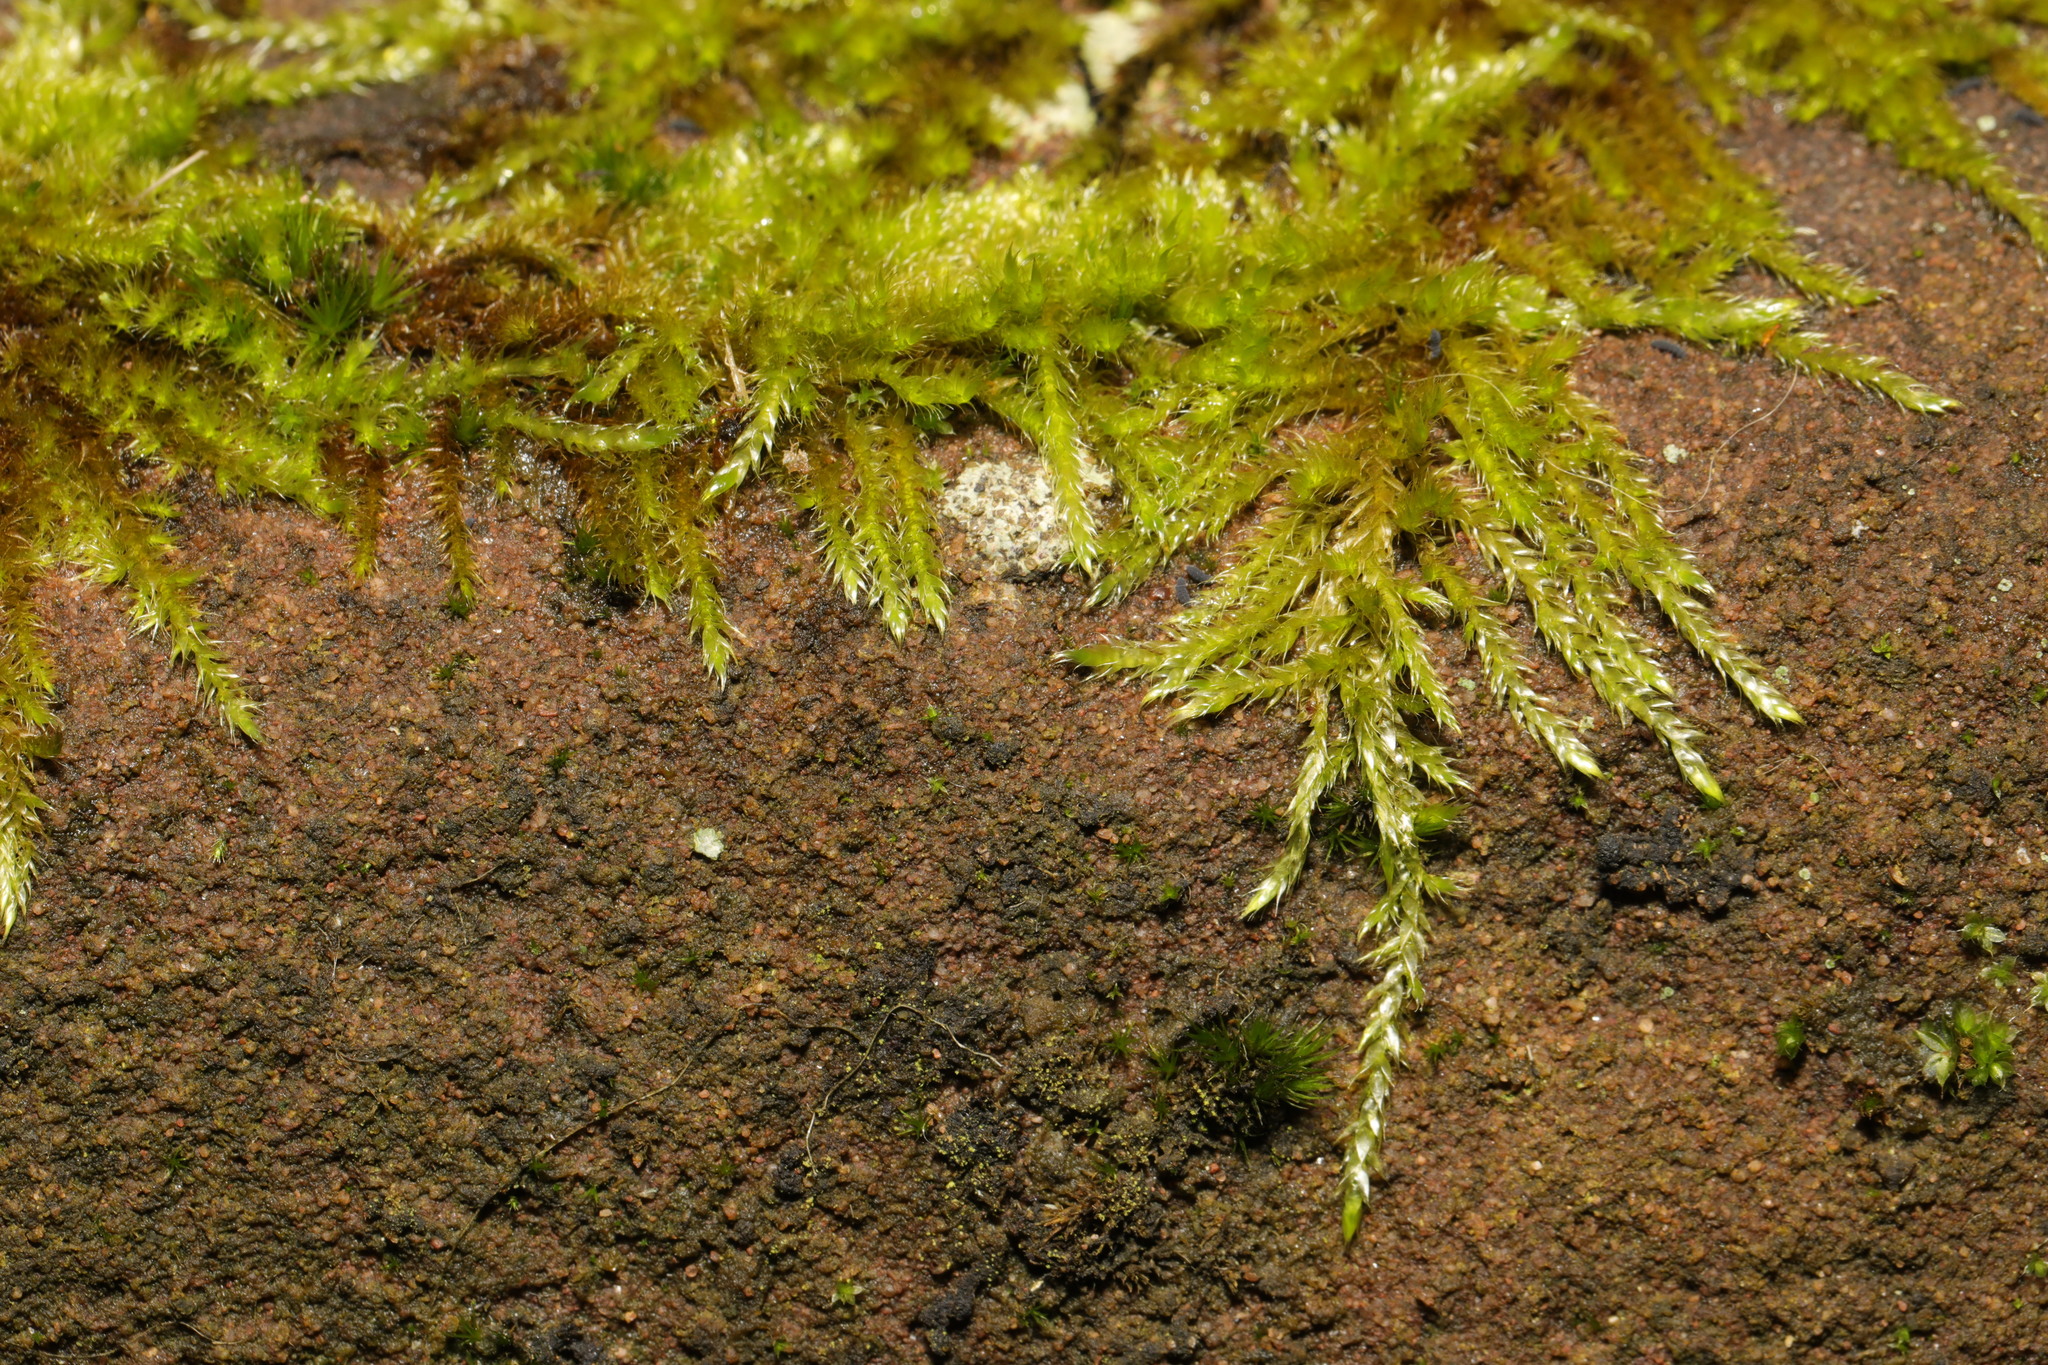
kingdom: Plantae
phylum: Bryophyta
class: Bryopsida
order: Hypnales
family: Hypnaceae
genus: Hypnum
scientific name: Hypnum cupressiforme
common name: Cypress-leaved plait-moss
